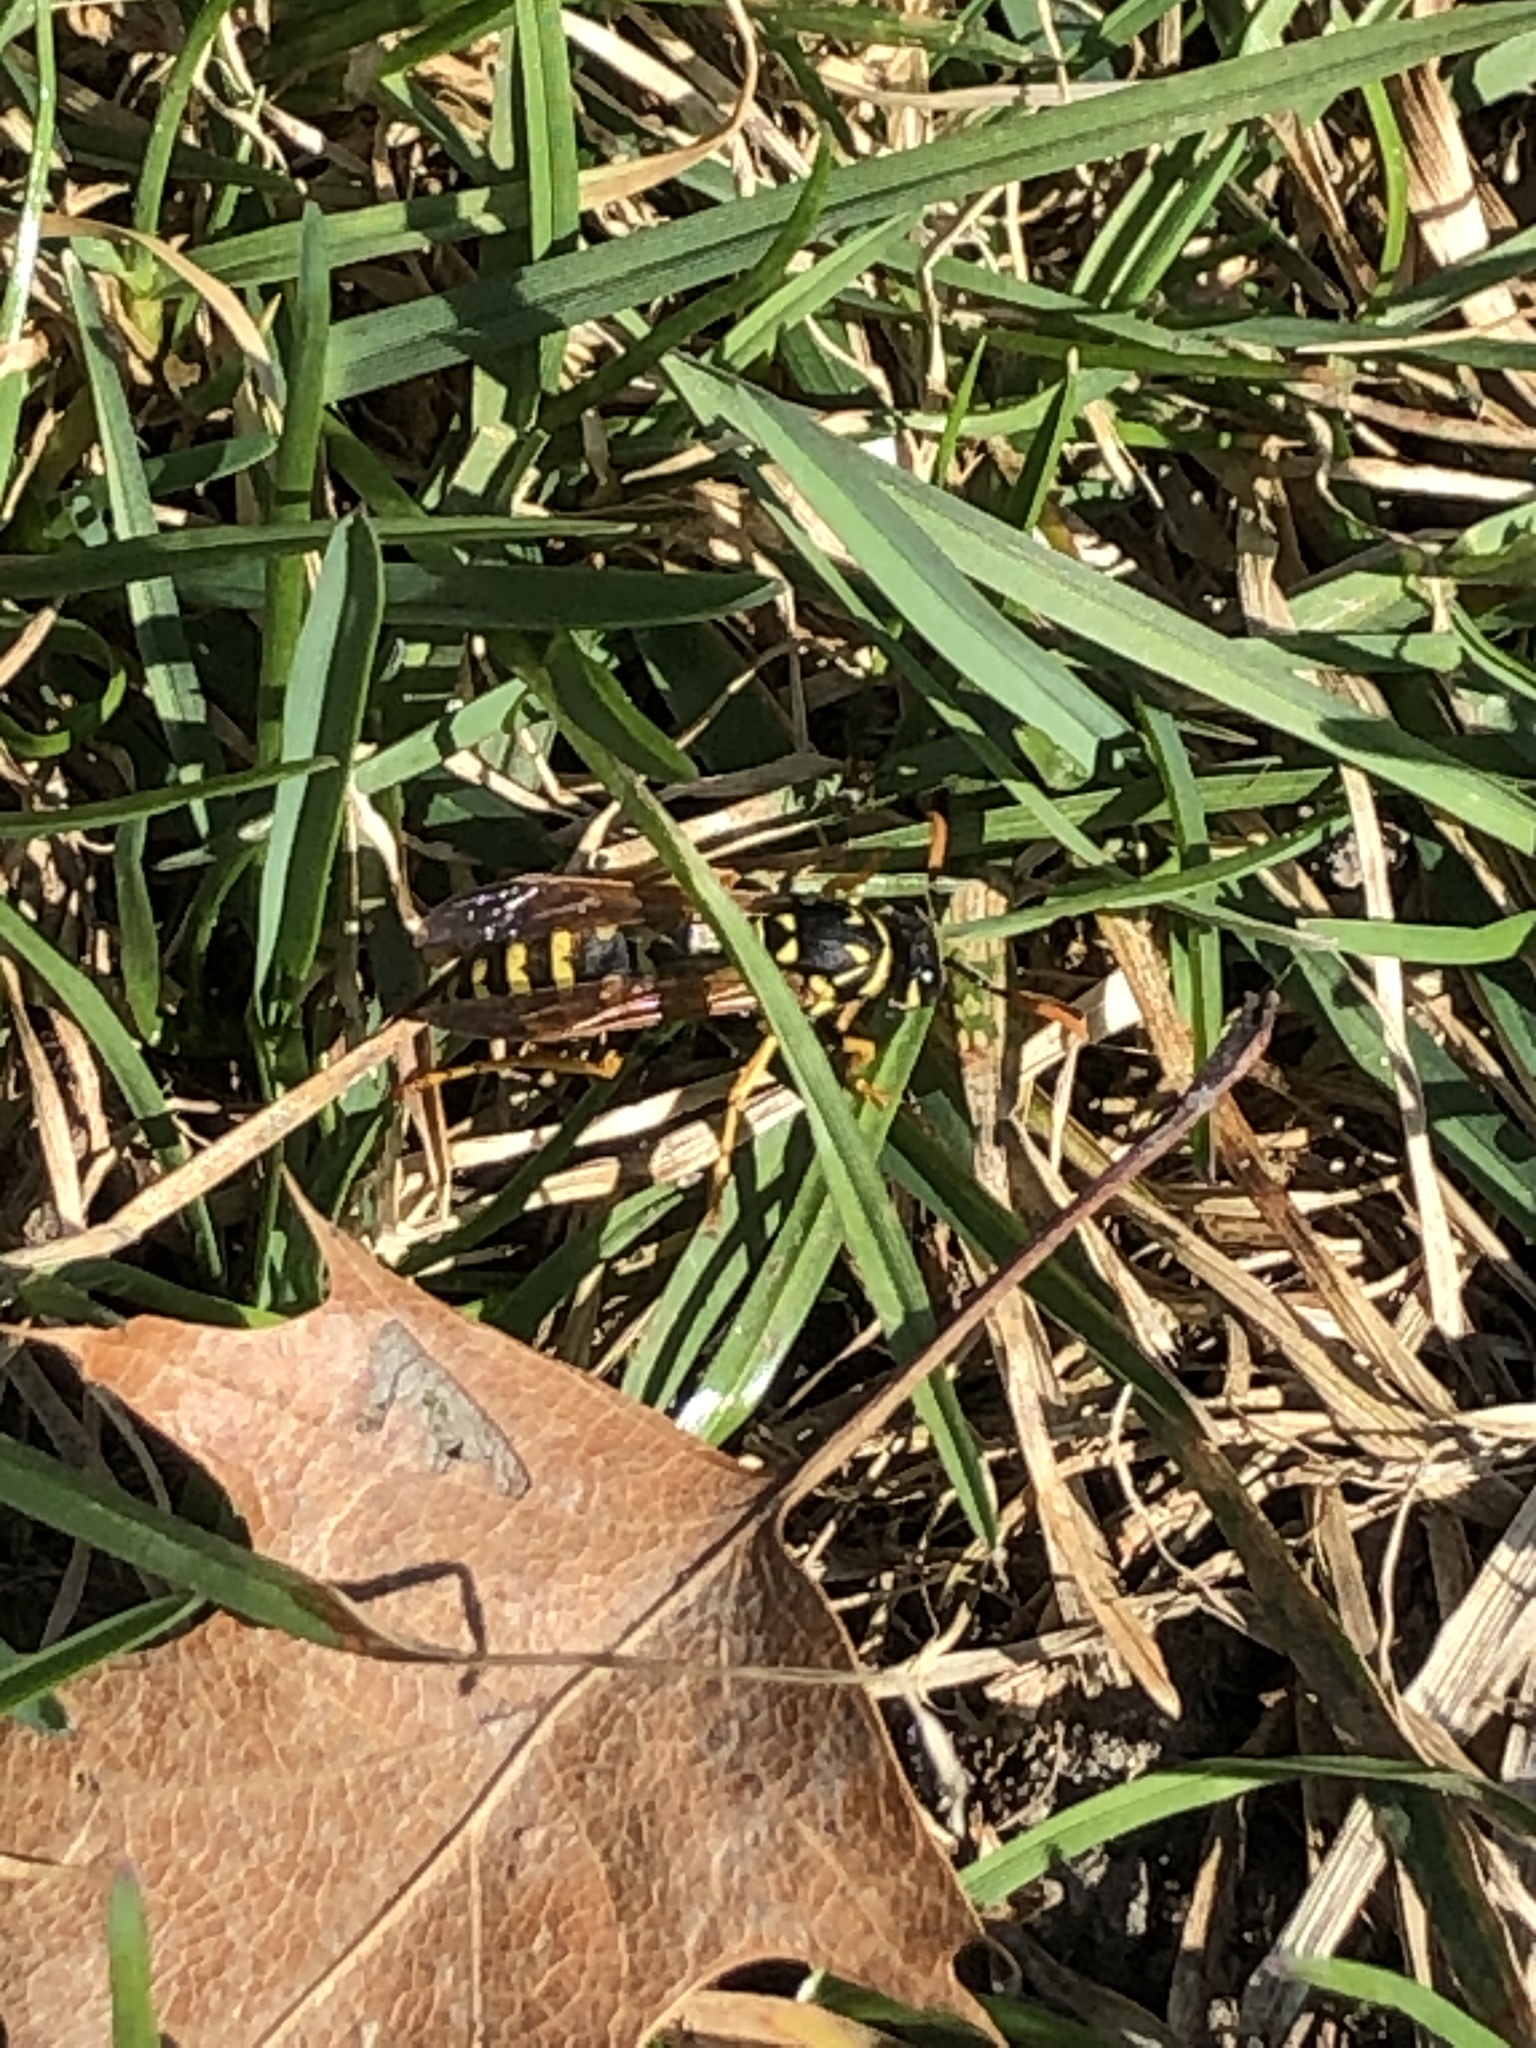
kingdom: Animalia
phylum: Arthropoda
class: Insecta
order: Hymenoptera
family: Eumenidae
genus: Polistes
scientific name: Polistes dominula
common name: Paper wasp
